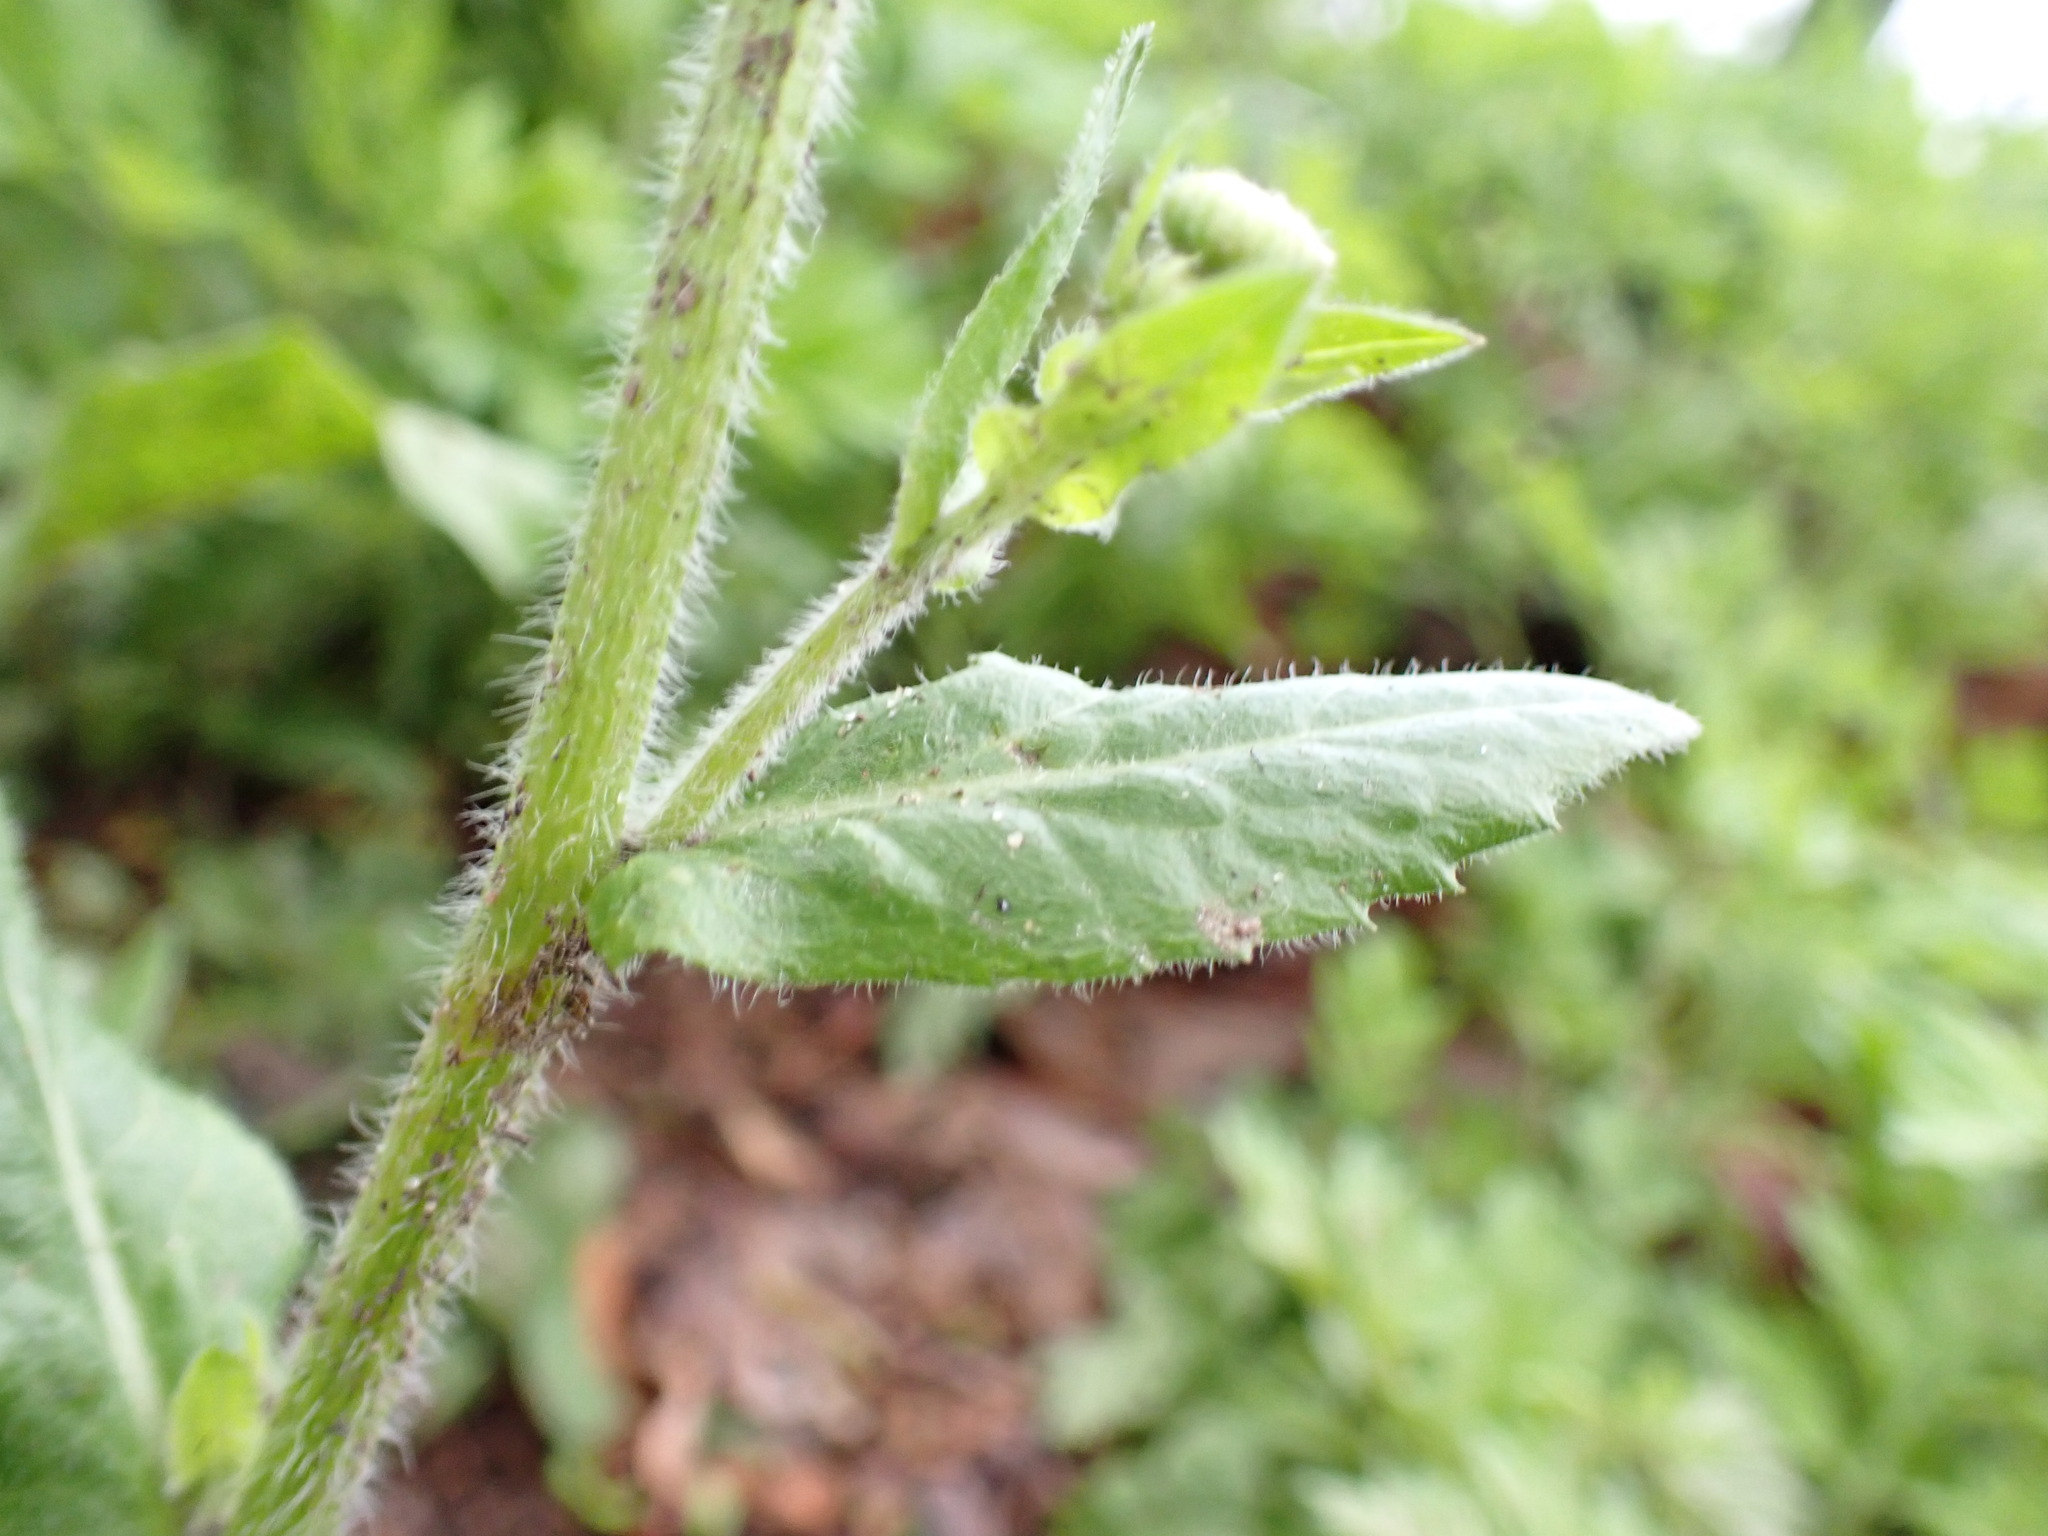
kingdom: Plantae
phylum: Tracheophyta
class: Magnoliopsida
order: Asterales
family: Asteraceae
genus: Erigeron
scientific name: Erigeron philadelphicus
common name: Robin's-plantain
